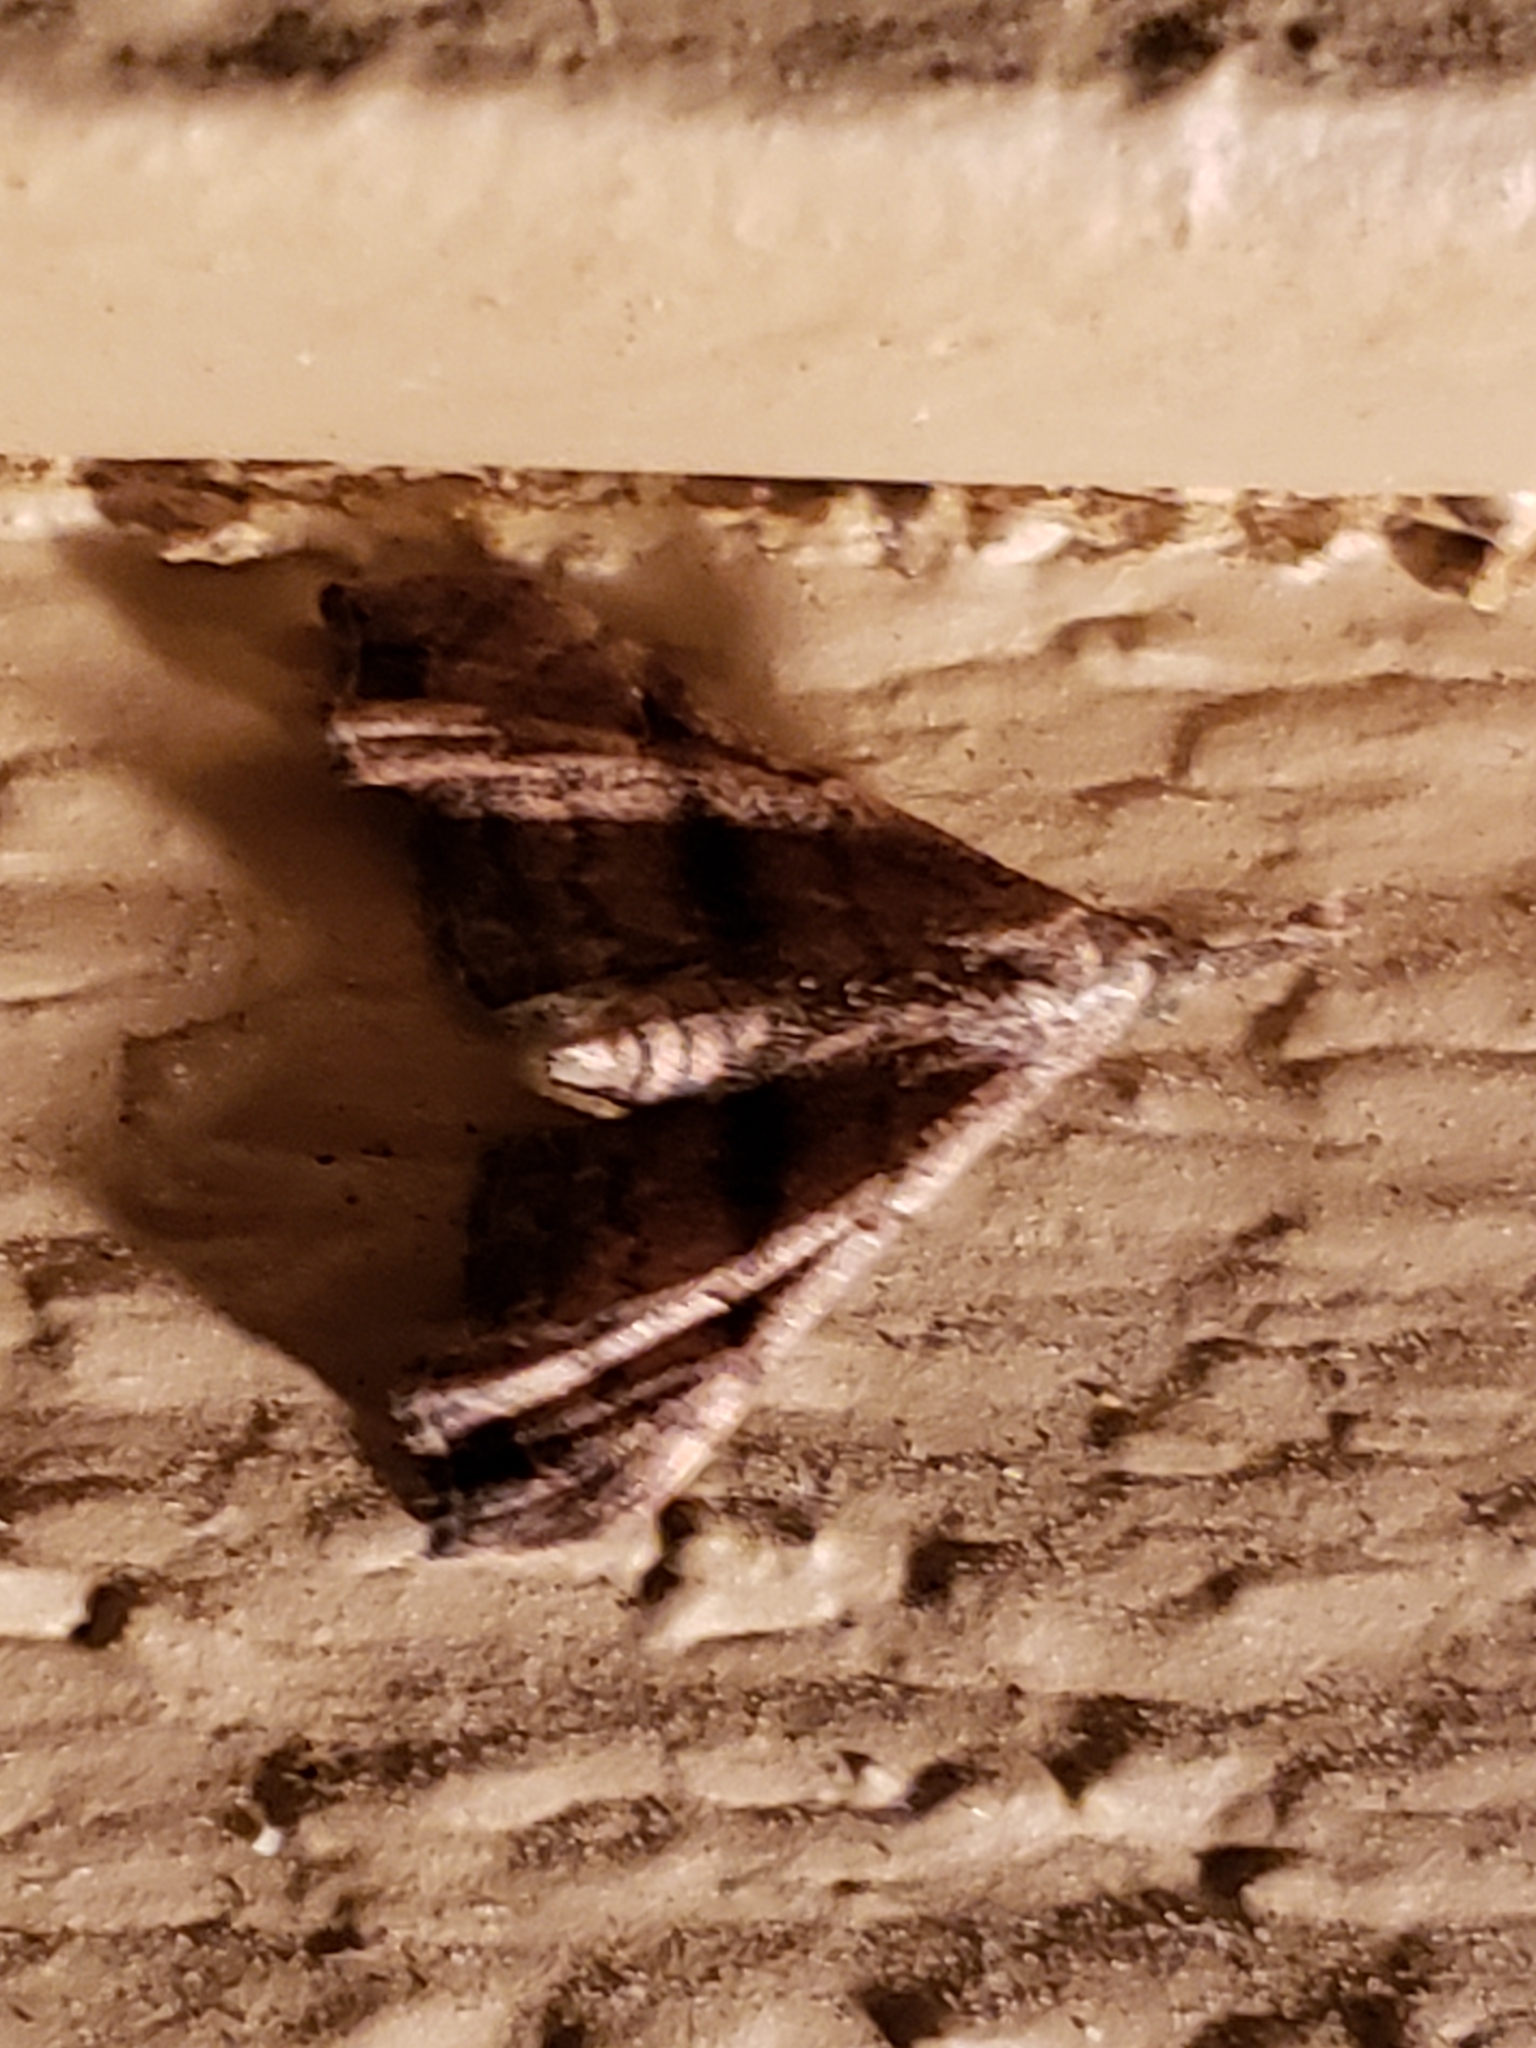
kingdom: Animalia
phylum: Arthropoda
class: Insecta
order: Lepidoptera
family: Erebidae
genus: Palthis
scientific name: Palthis asopialis
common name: Faint-spotted palthis moth
